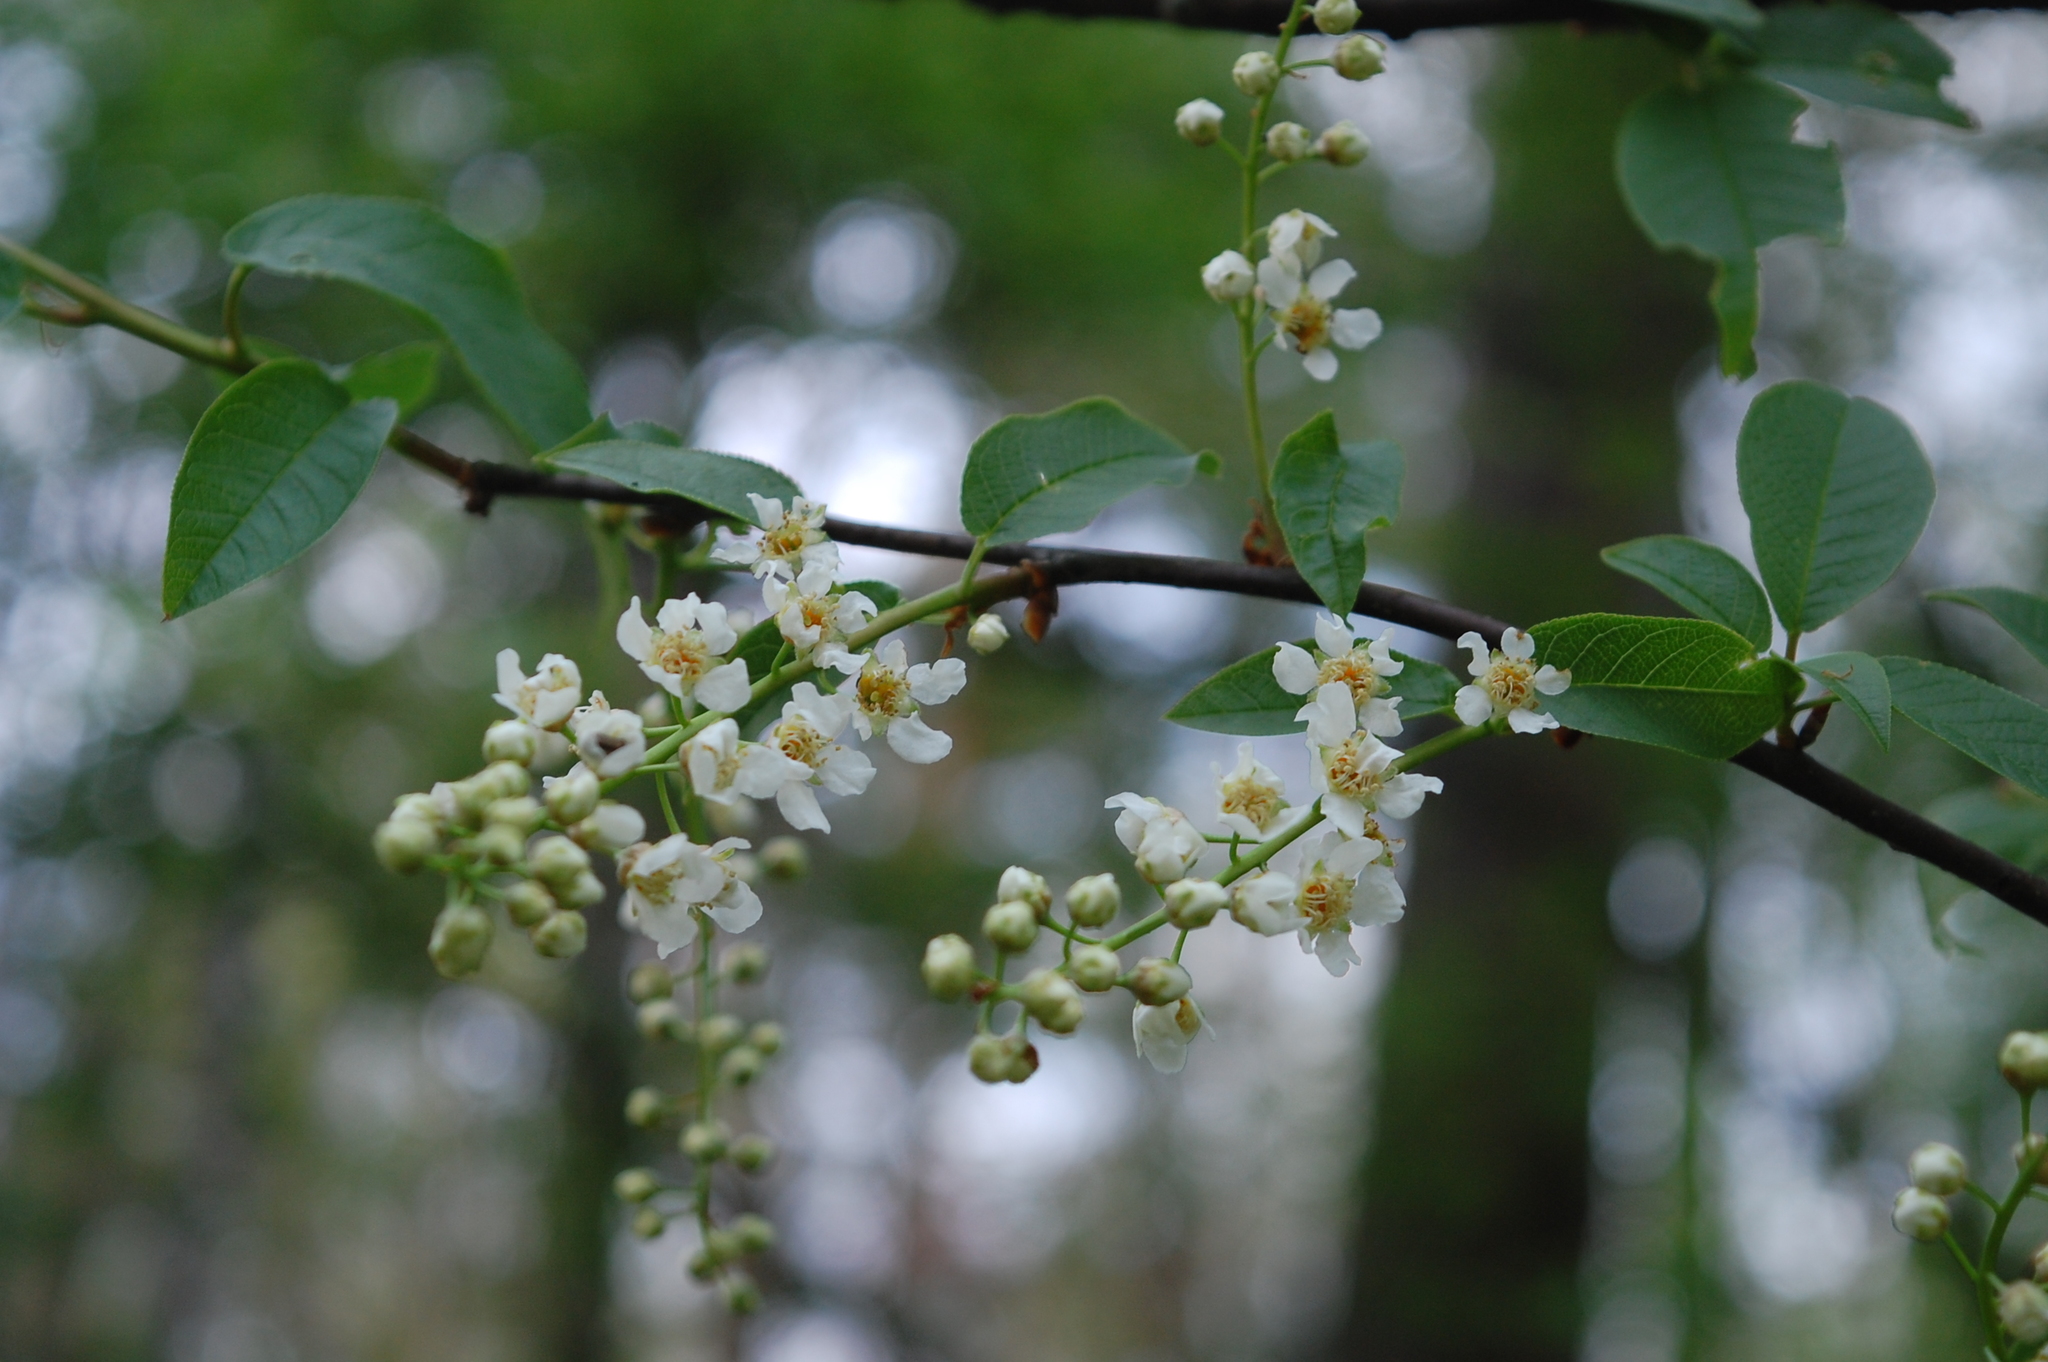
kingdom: Plantae
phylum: Tracheophyta
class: Magnoliopsida
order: Rosales
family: Rosaceae
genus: Prunus
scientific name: Prunus padus
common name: Bird cherry
